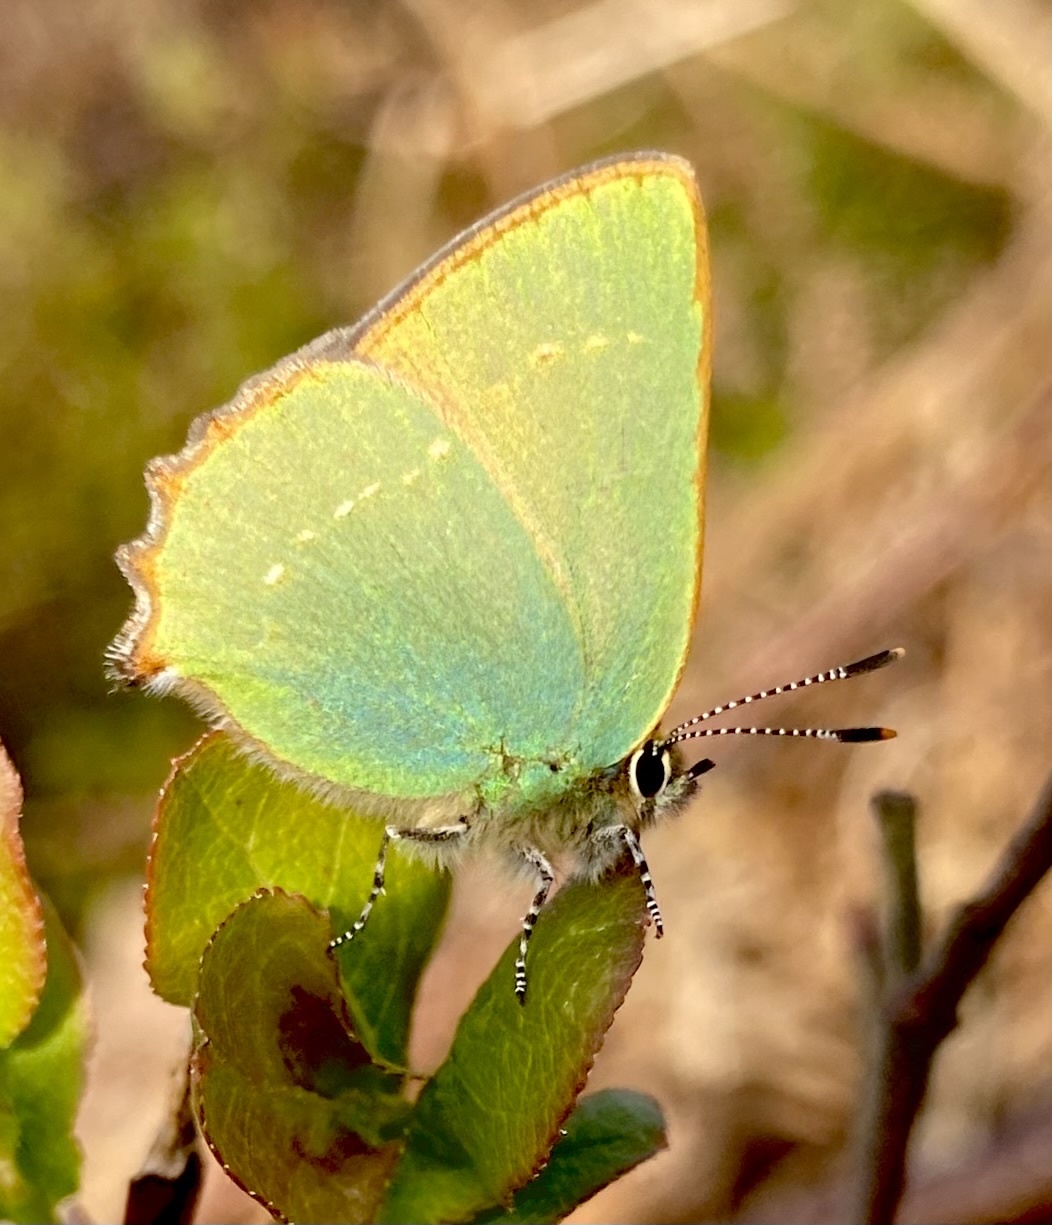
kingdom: Animalia
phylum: Arthropoda
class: Insecta
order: Lepidoptera
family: Lycaenidae
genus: Callophrys
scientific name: Callophrys rubi
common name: Green hairstreak
